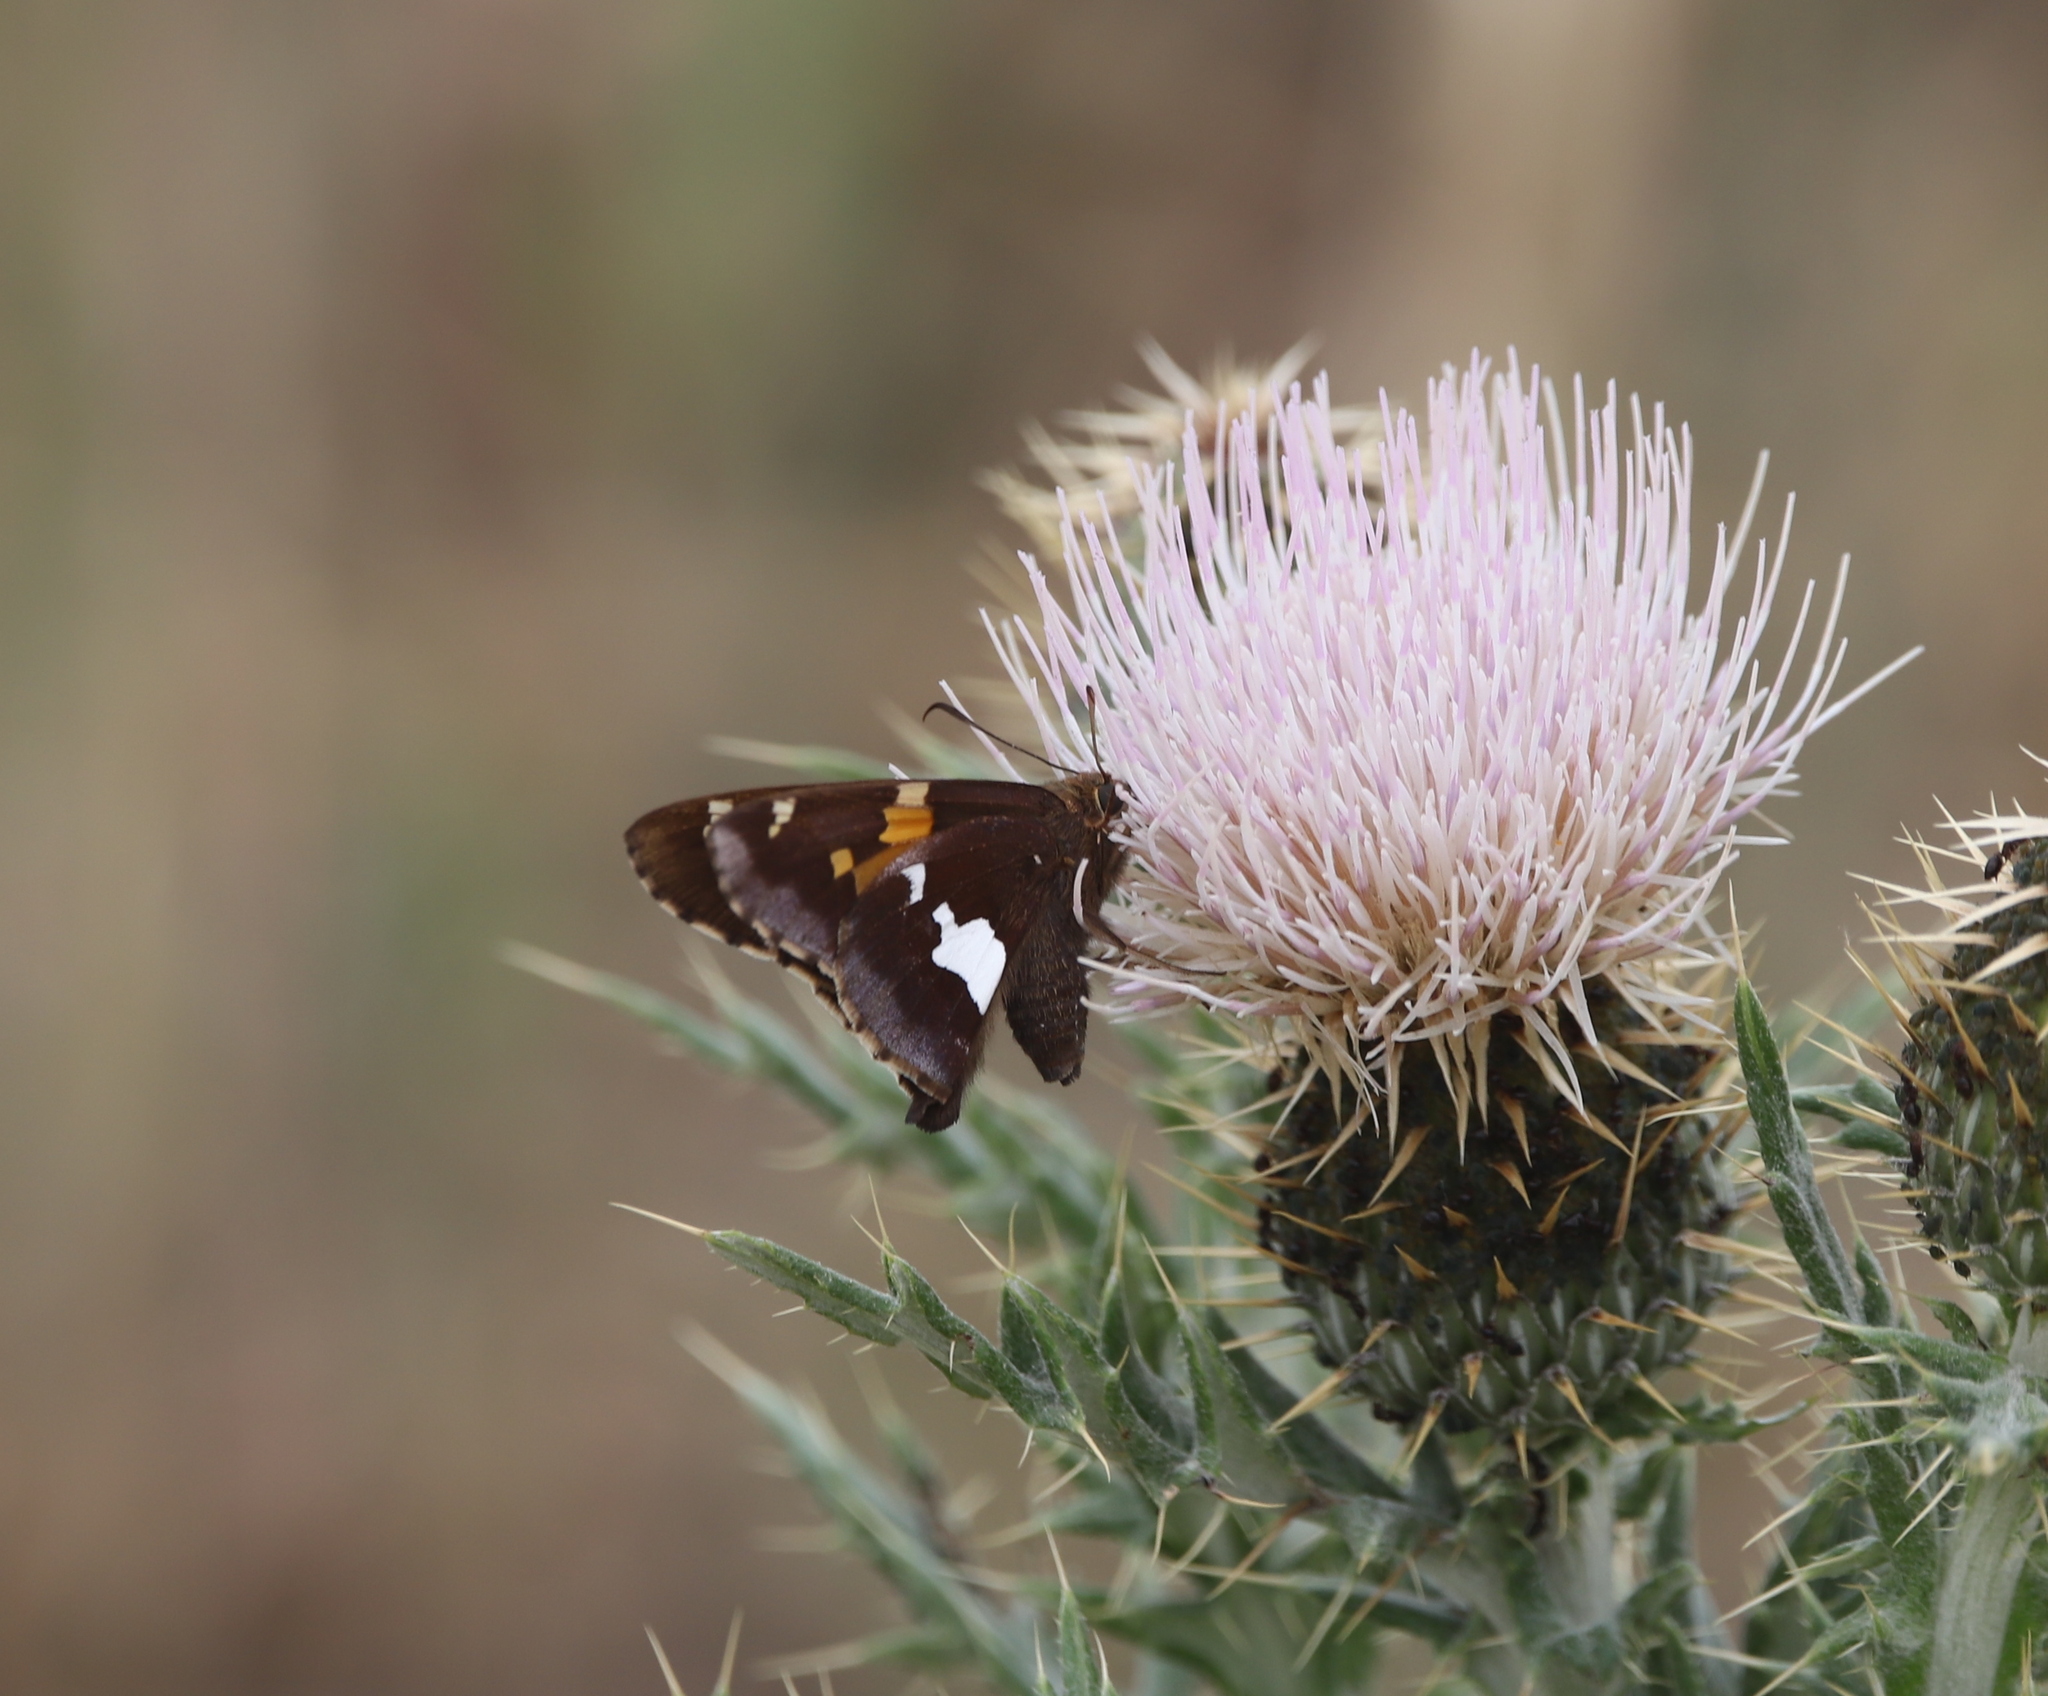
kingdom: Animalia
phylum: Arthropoda
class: Insecta
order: Lepidoptera
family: Hesperiidae
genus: Epargyreus
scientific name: Epargyreus clarus
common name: Silver-spotted skipper
